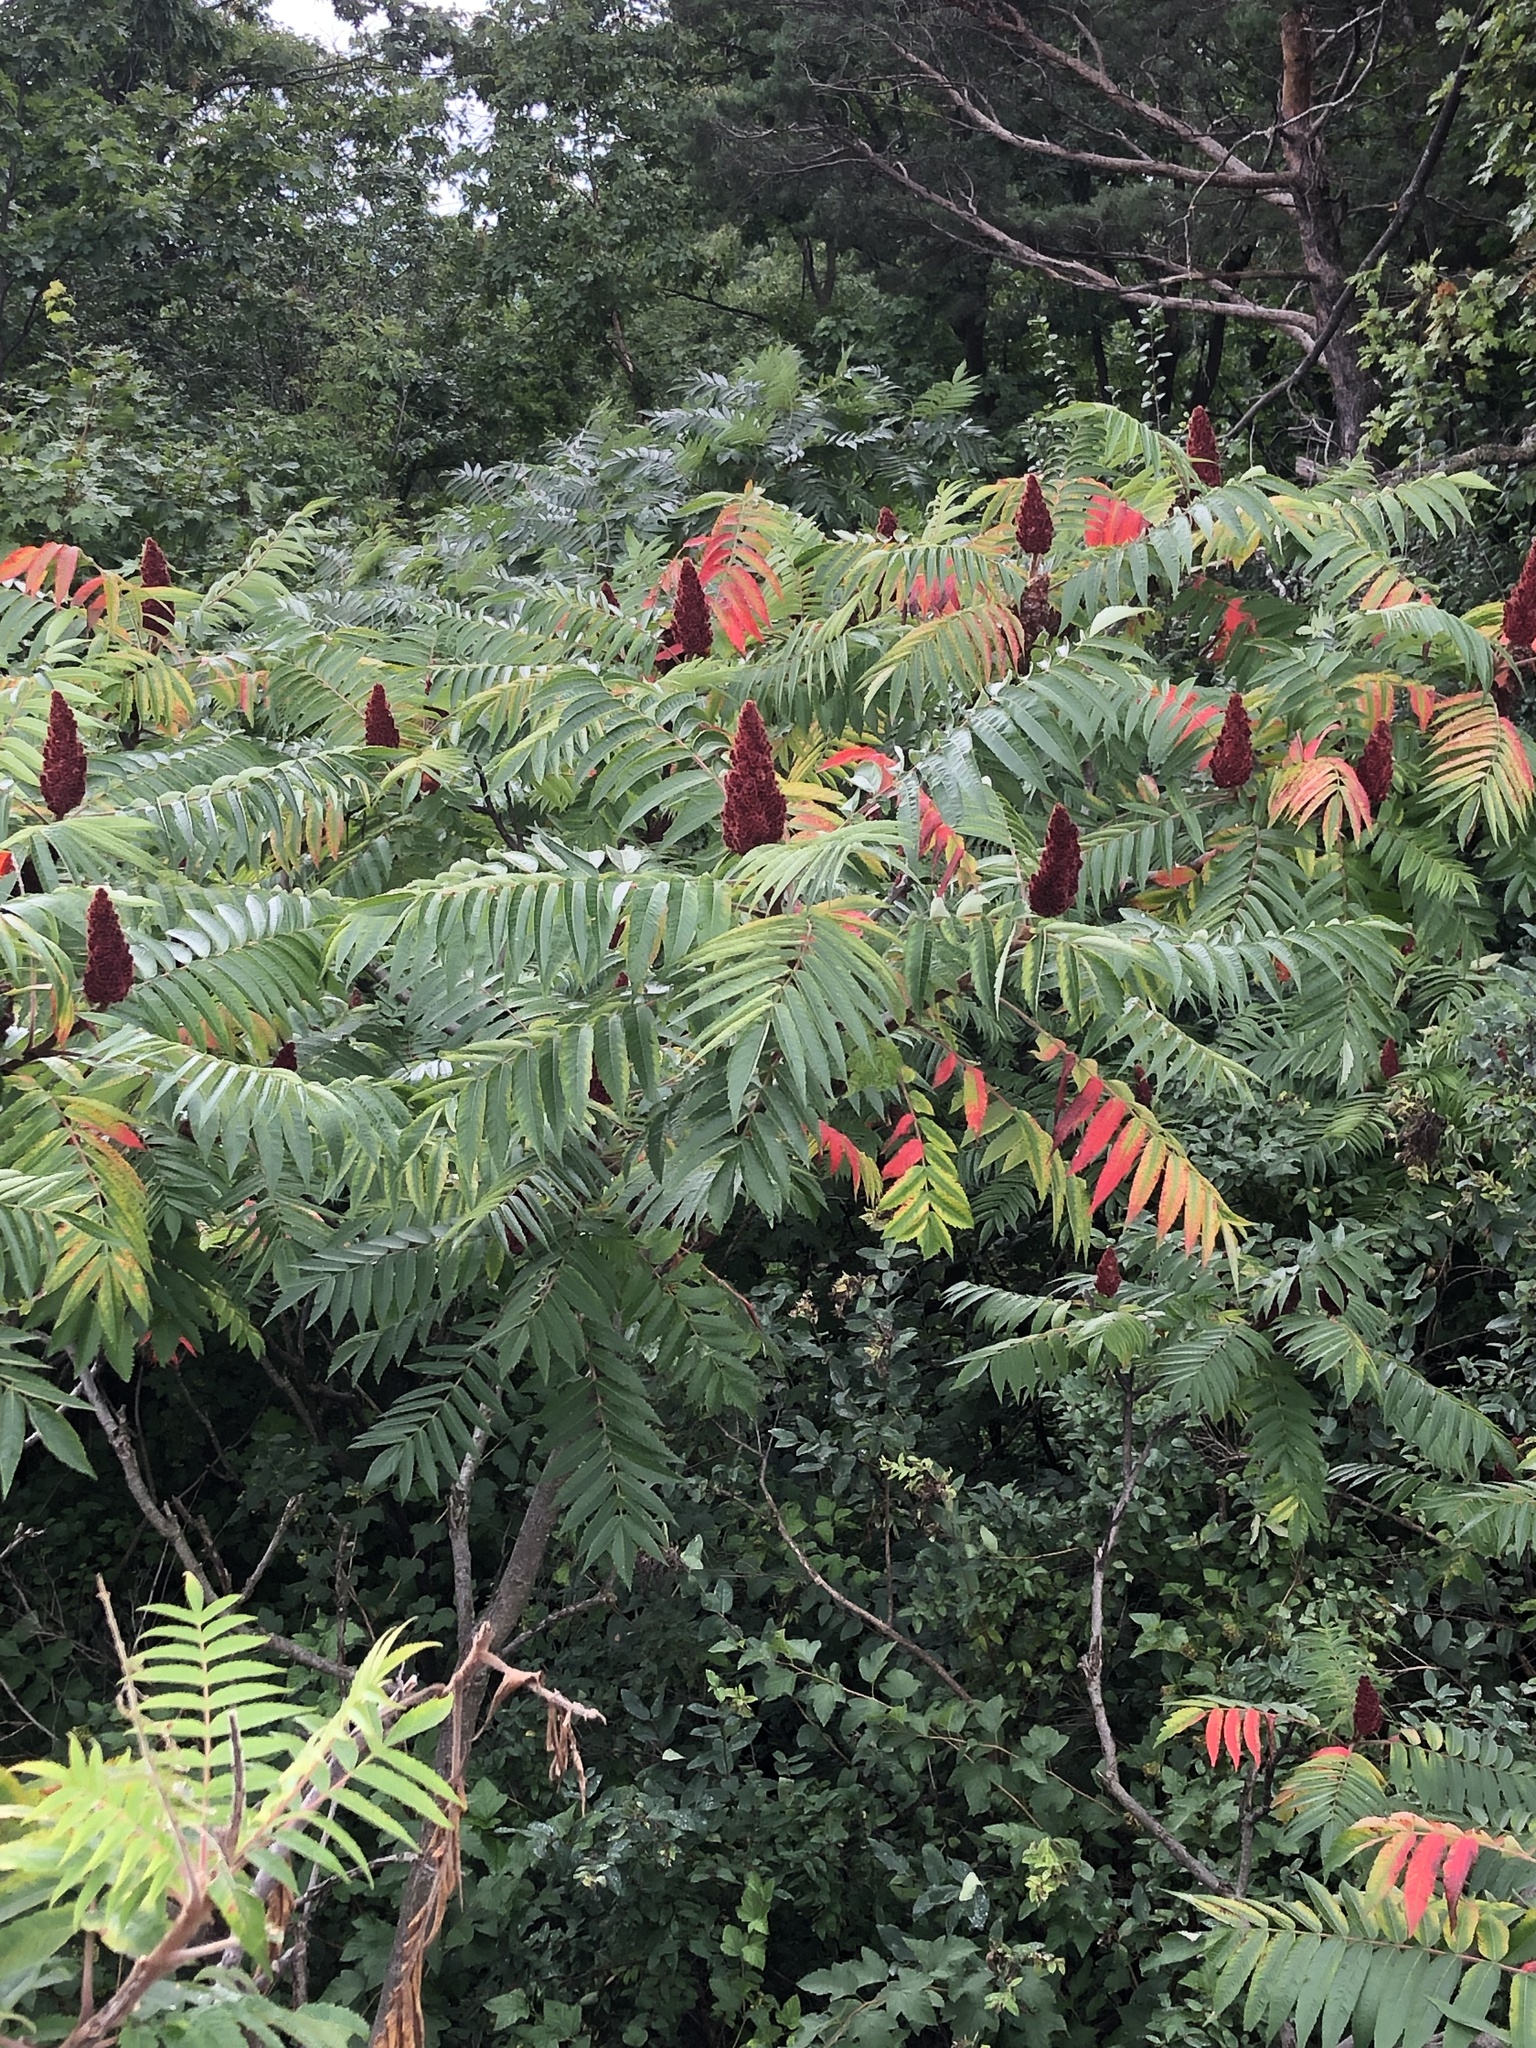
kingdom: Plantae
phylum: Tracheophyta
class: Magnoliopsida
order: Sapindales
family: Anacardiaceae
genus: Rhus
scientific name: Rhus typhina
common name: Staghorn sumac
